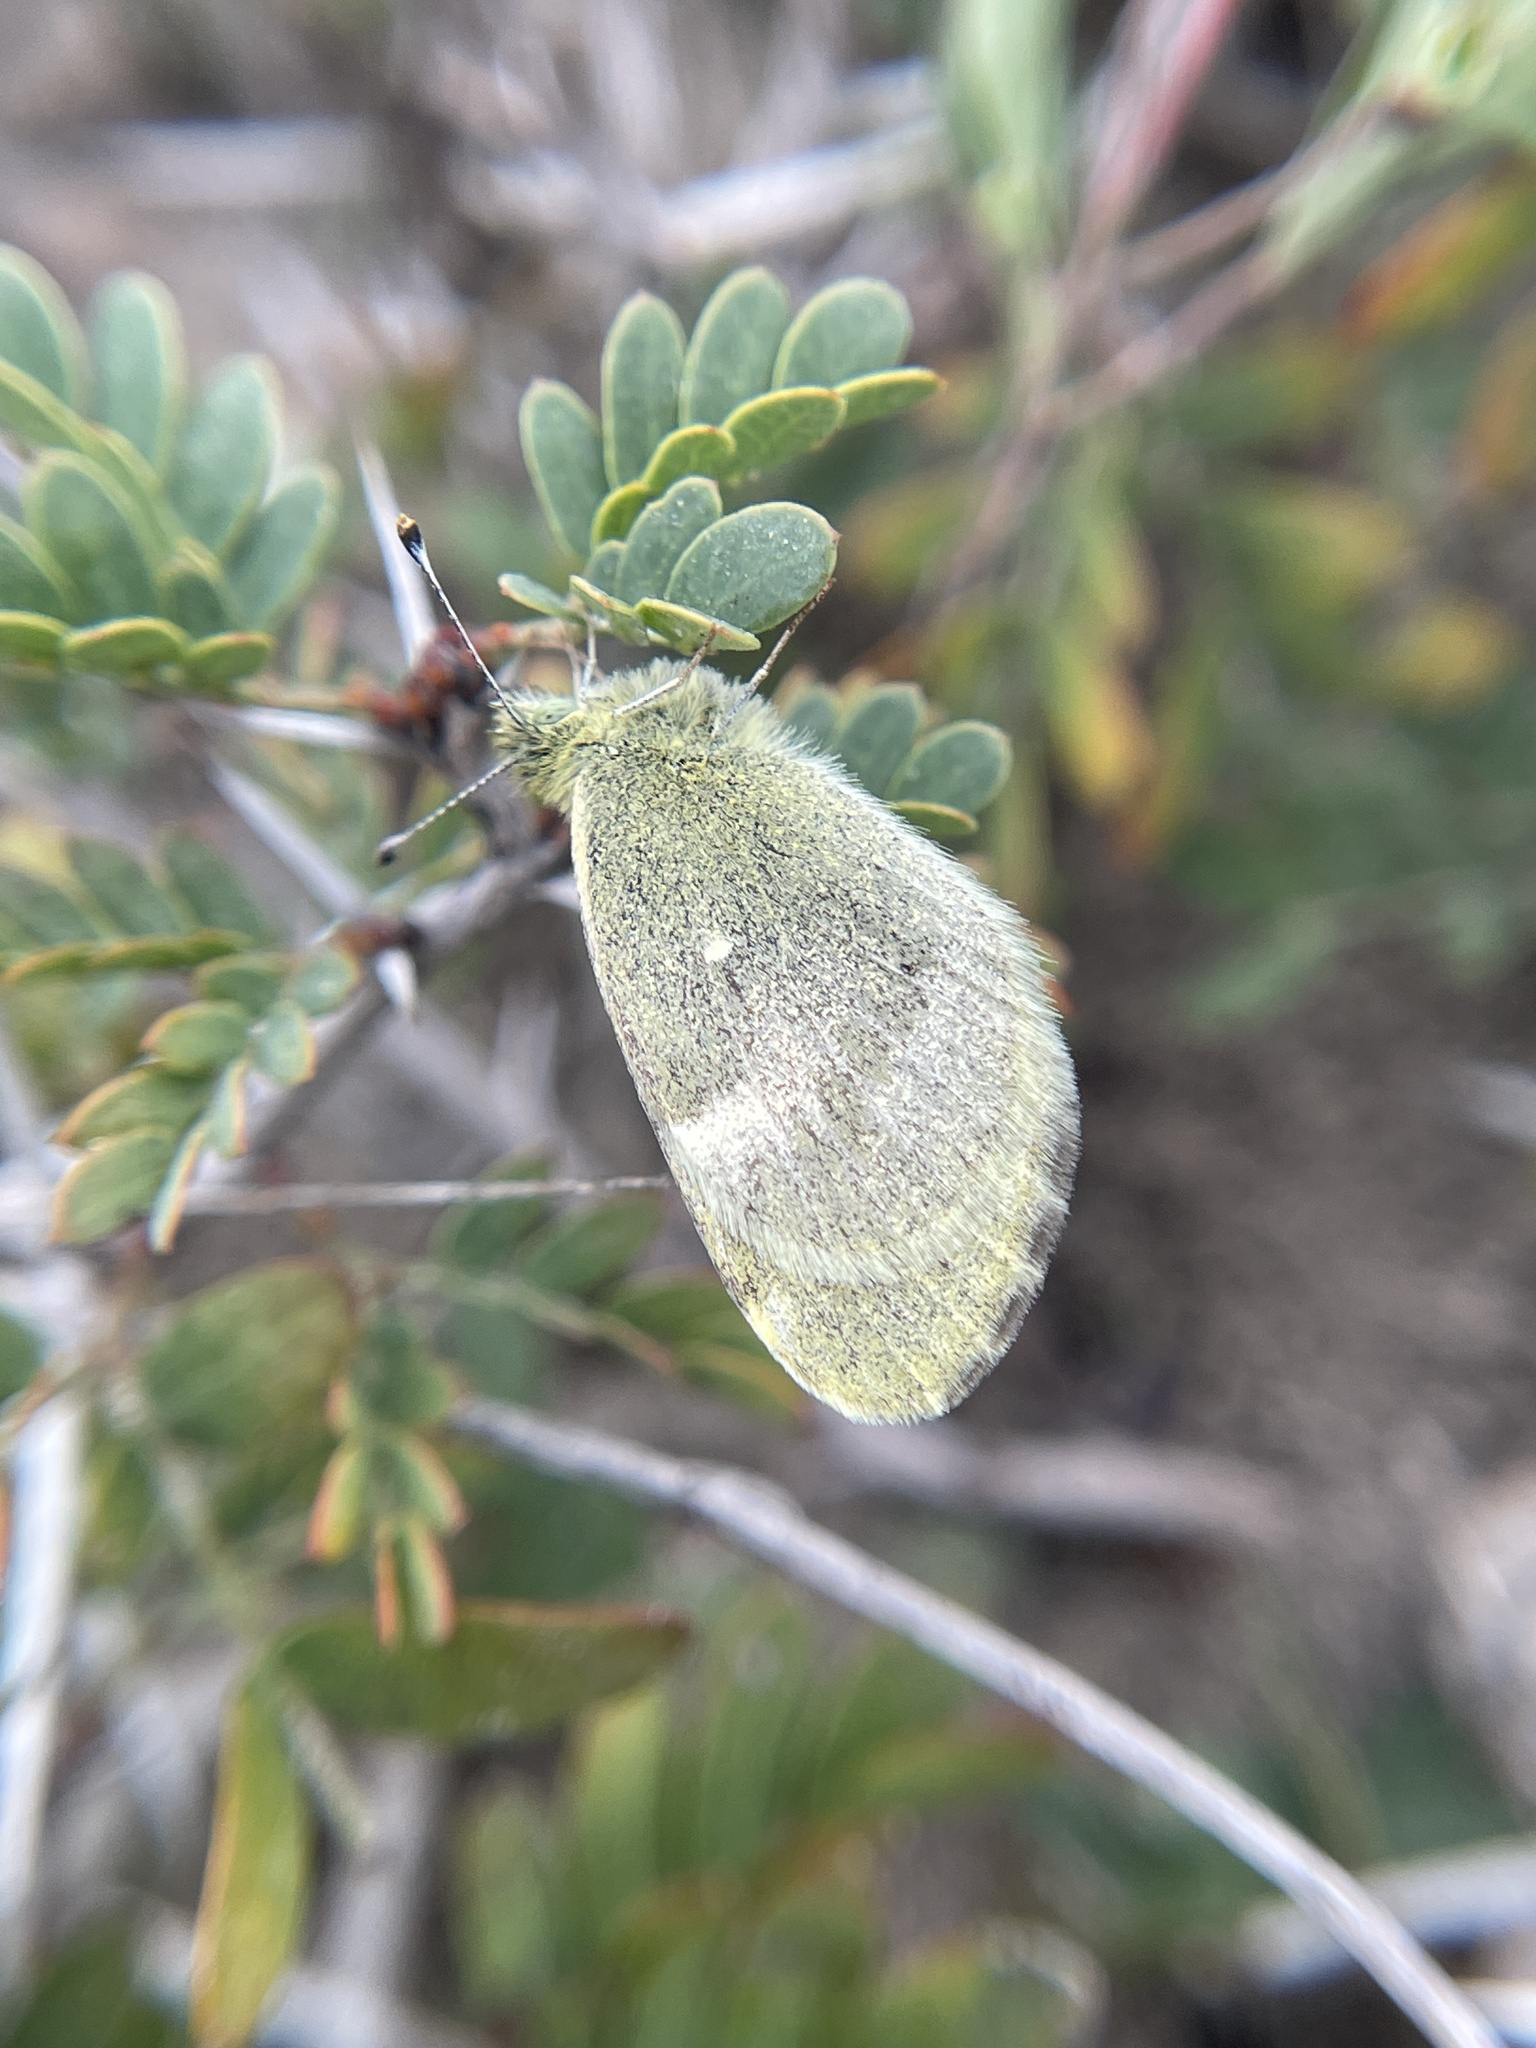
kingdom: Animalia
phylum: Arthropoda
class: Insecta
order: Lepidoptera
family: Pieridae
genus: Nathalis
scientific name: Nathalis iole
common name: Dainty sulphur
